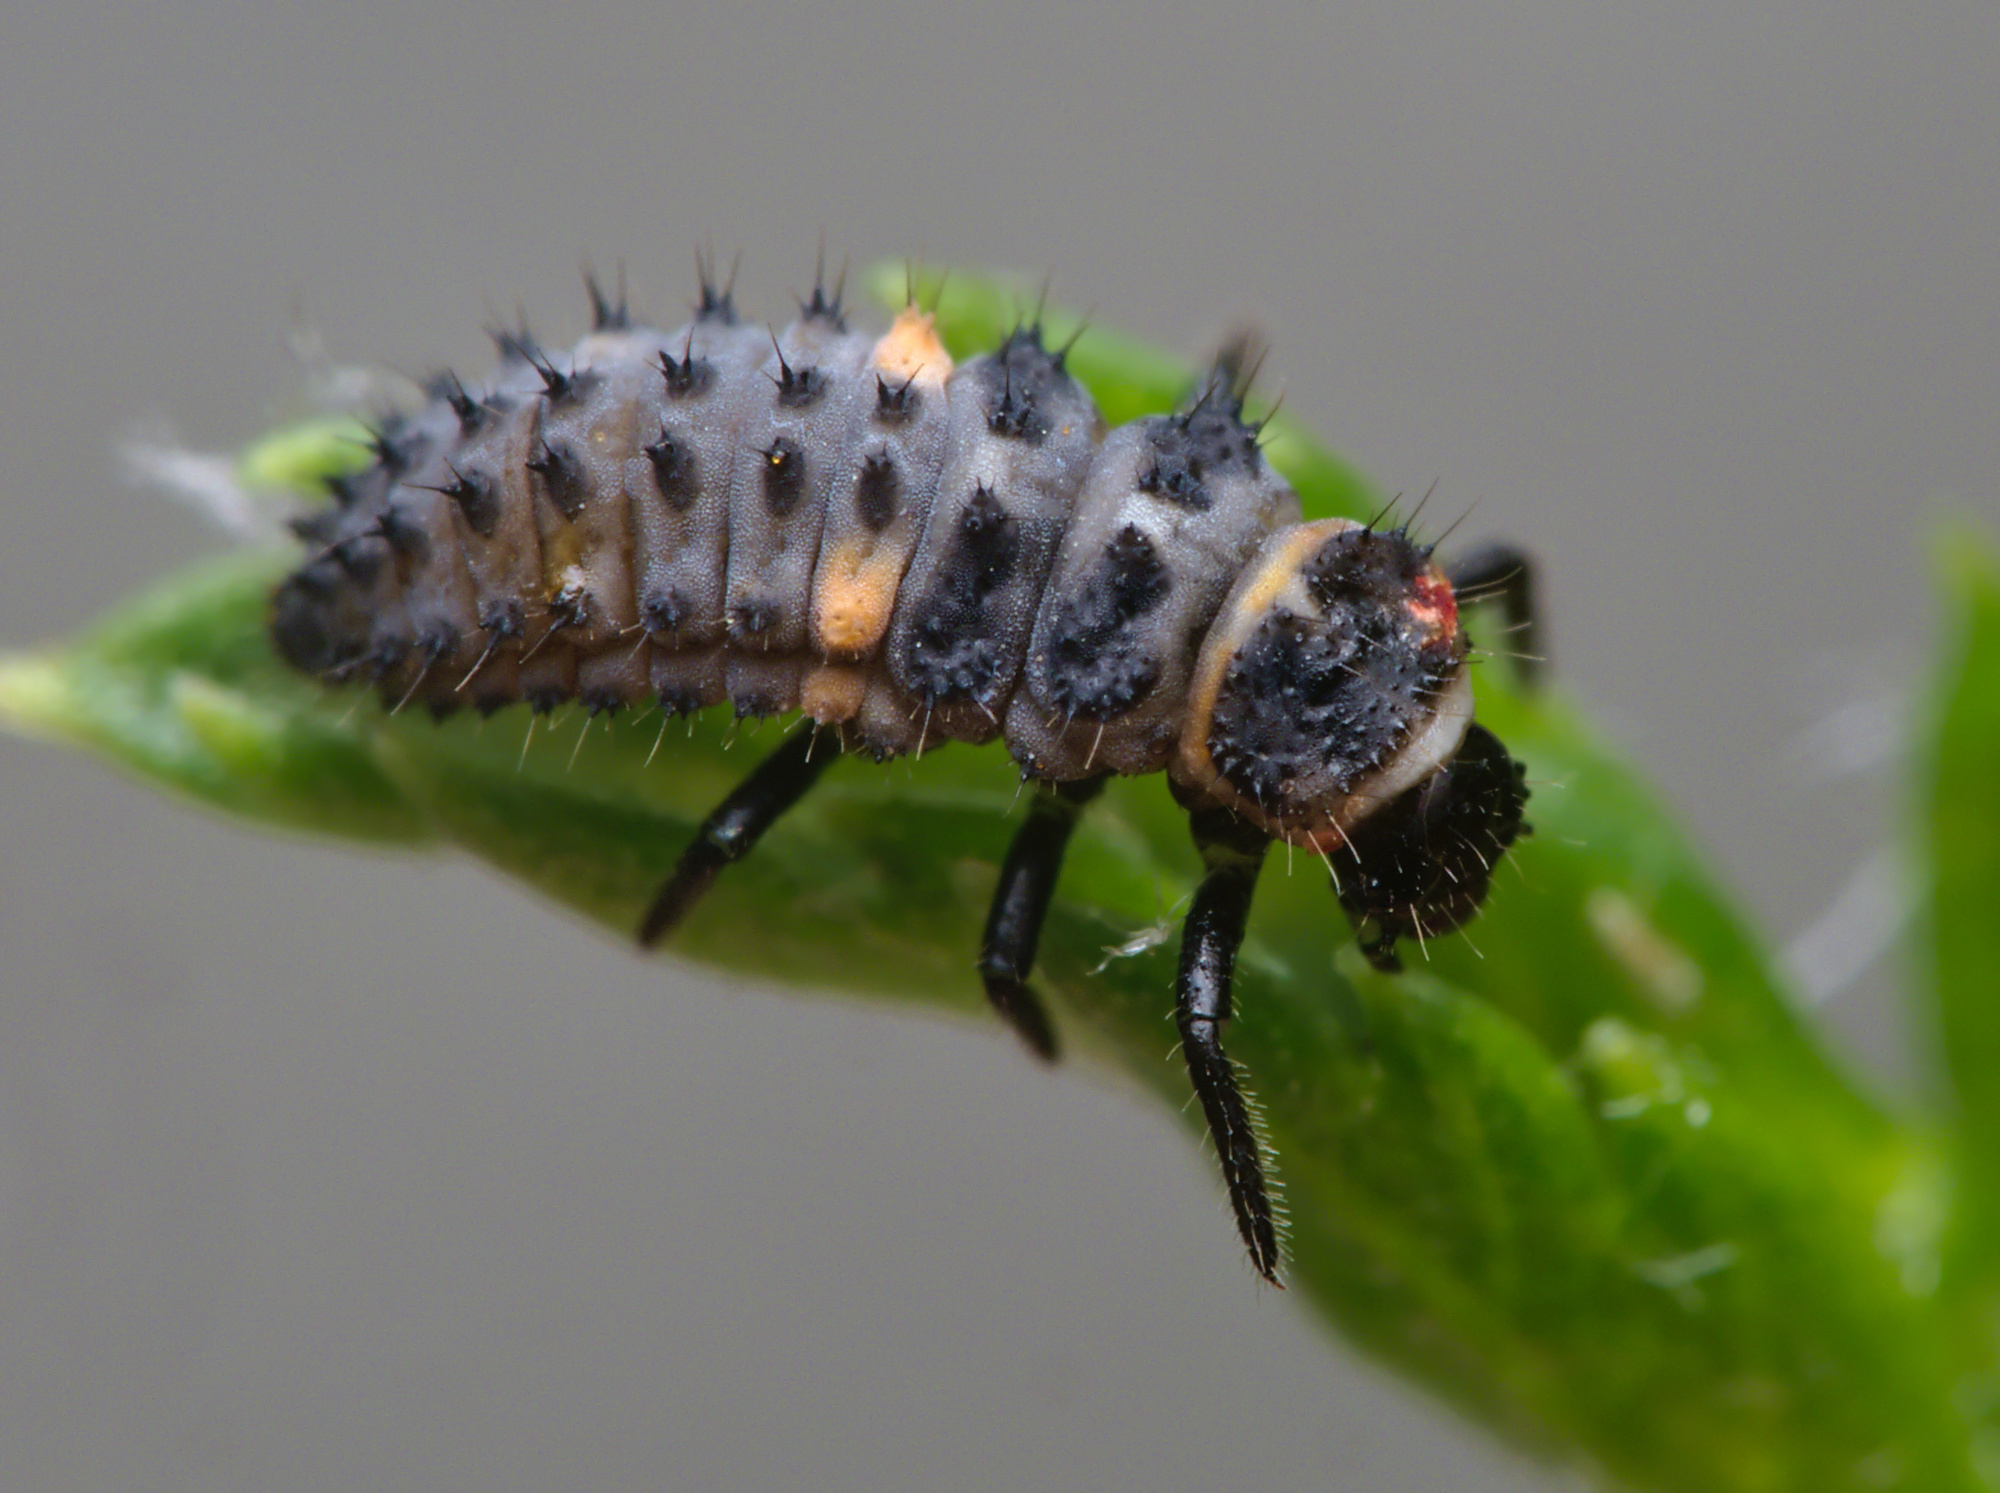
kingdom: Animalia
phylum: Arthropoda
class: Insecta
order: Coleoptera
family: Coccinellidae
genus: Hippodamia
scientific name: Hippodamia variegata
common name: Ladybird beetle
